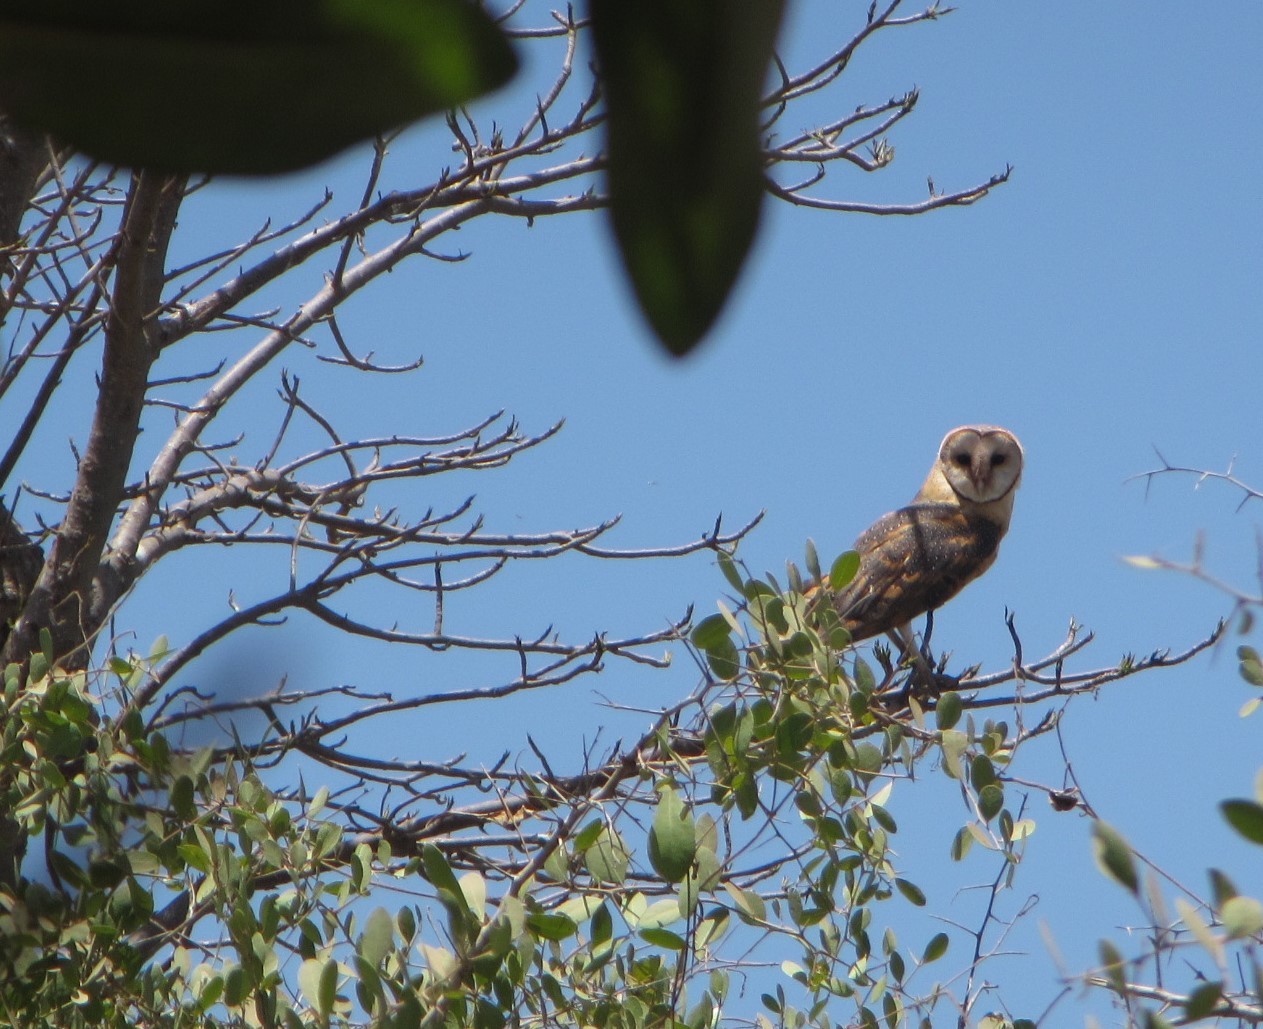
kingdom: Animalia
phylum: Chordata
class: Aves
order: Strigiformes
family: Tytonidae
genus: Tyto
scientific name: Tyto alba
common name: Barn owl
